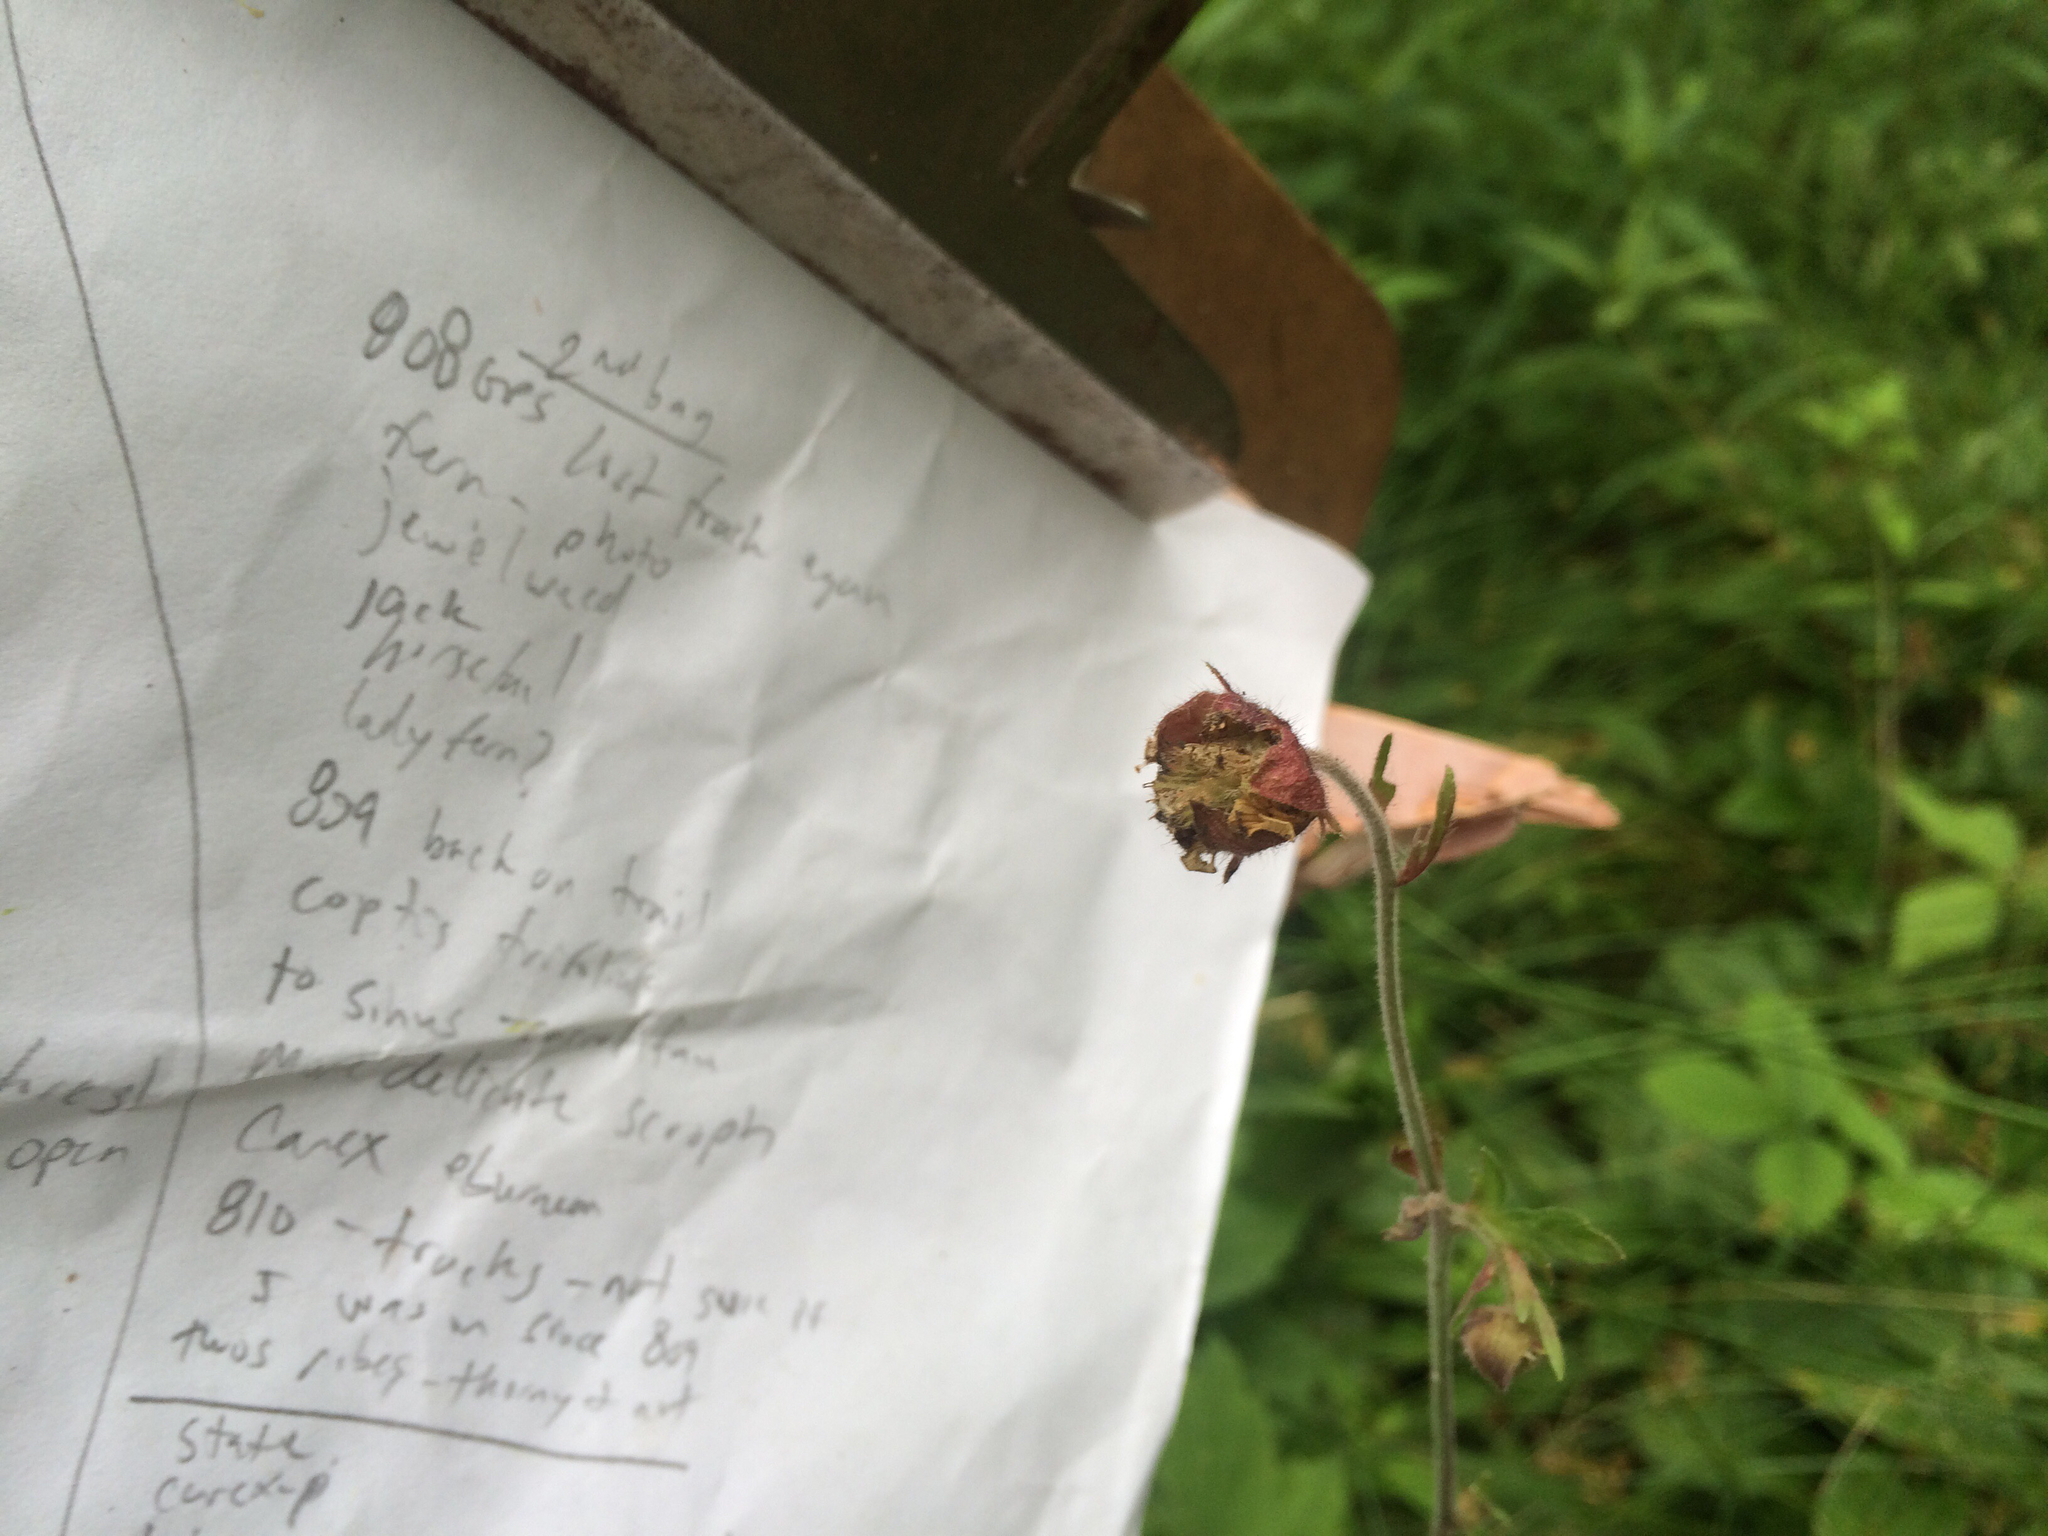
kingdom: Plantae
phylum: Tracheophyta
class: Magnoliopsida
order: Rosales
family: Rosaceae
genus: Geum
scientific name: Geum rivale
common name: Water avens
